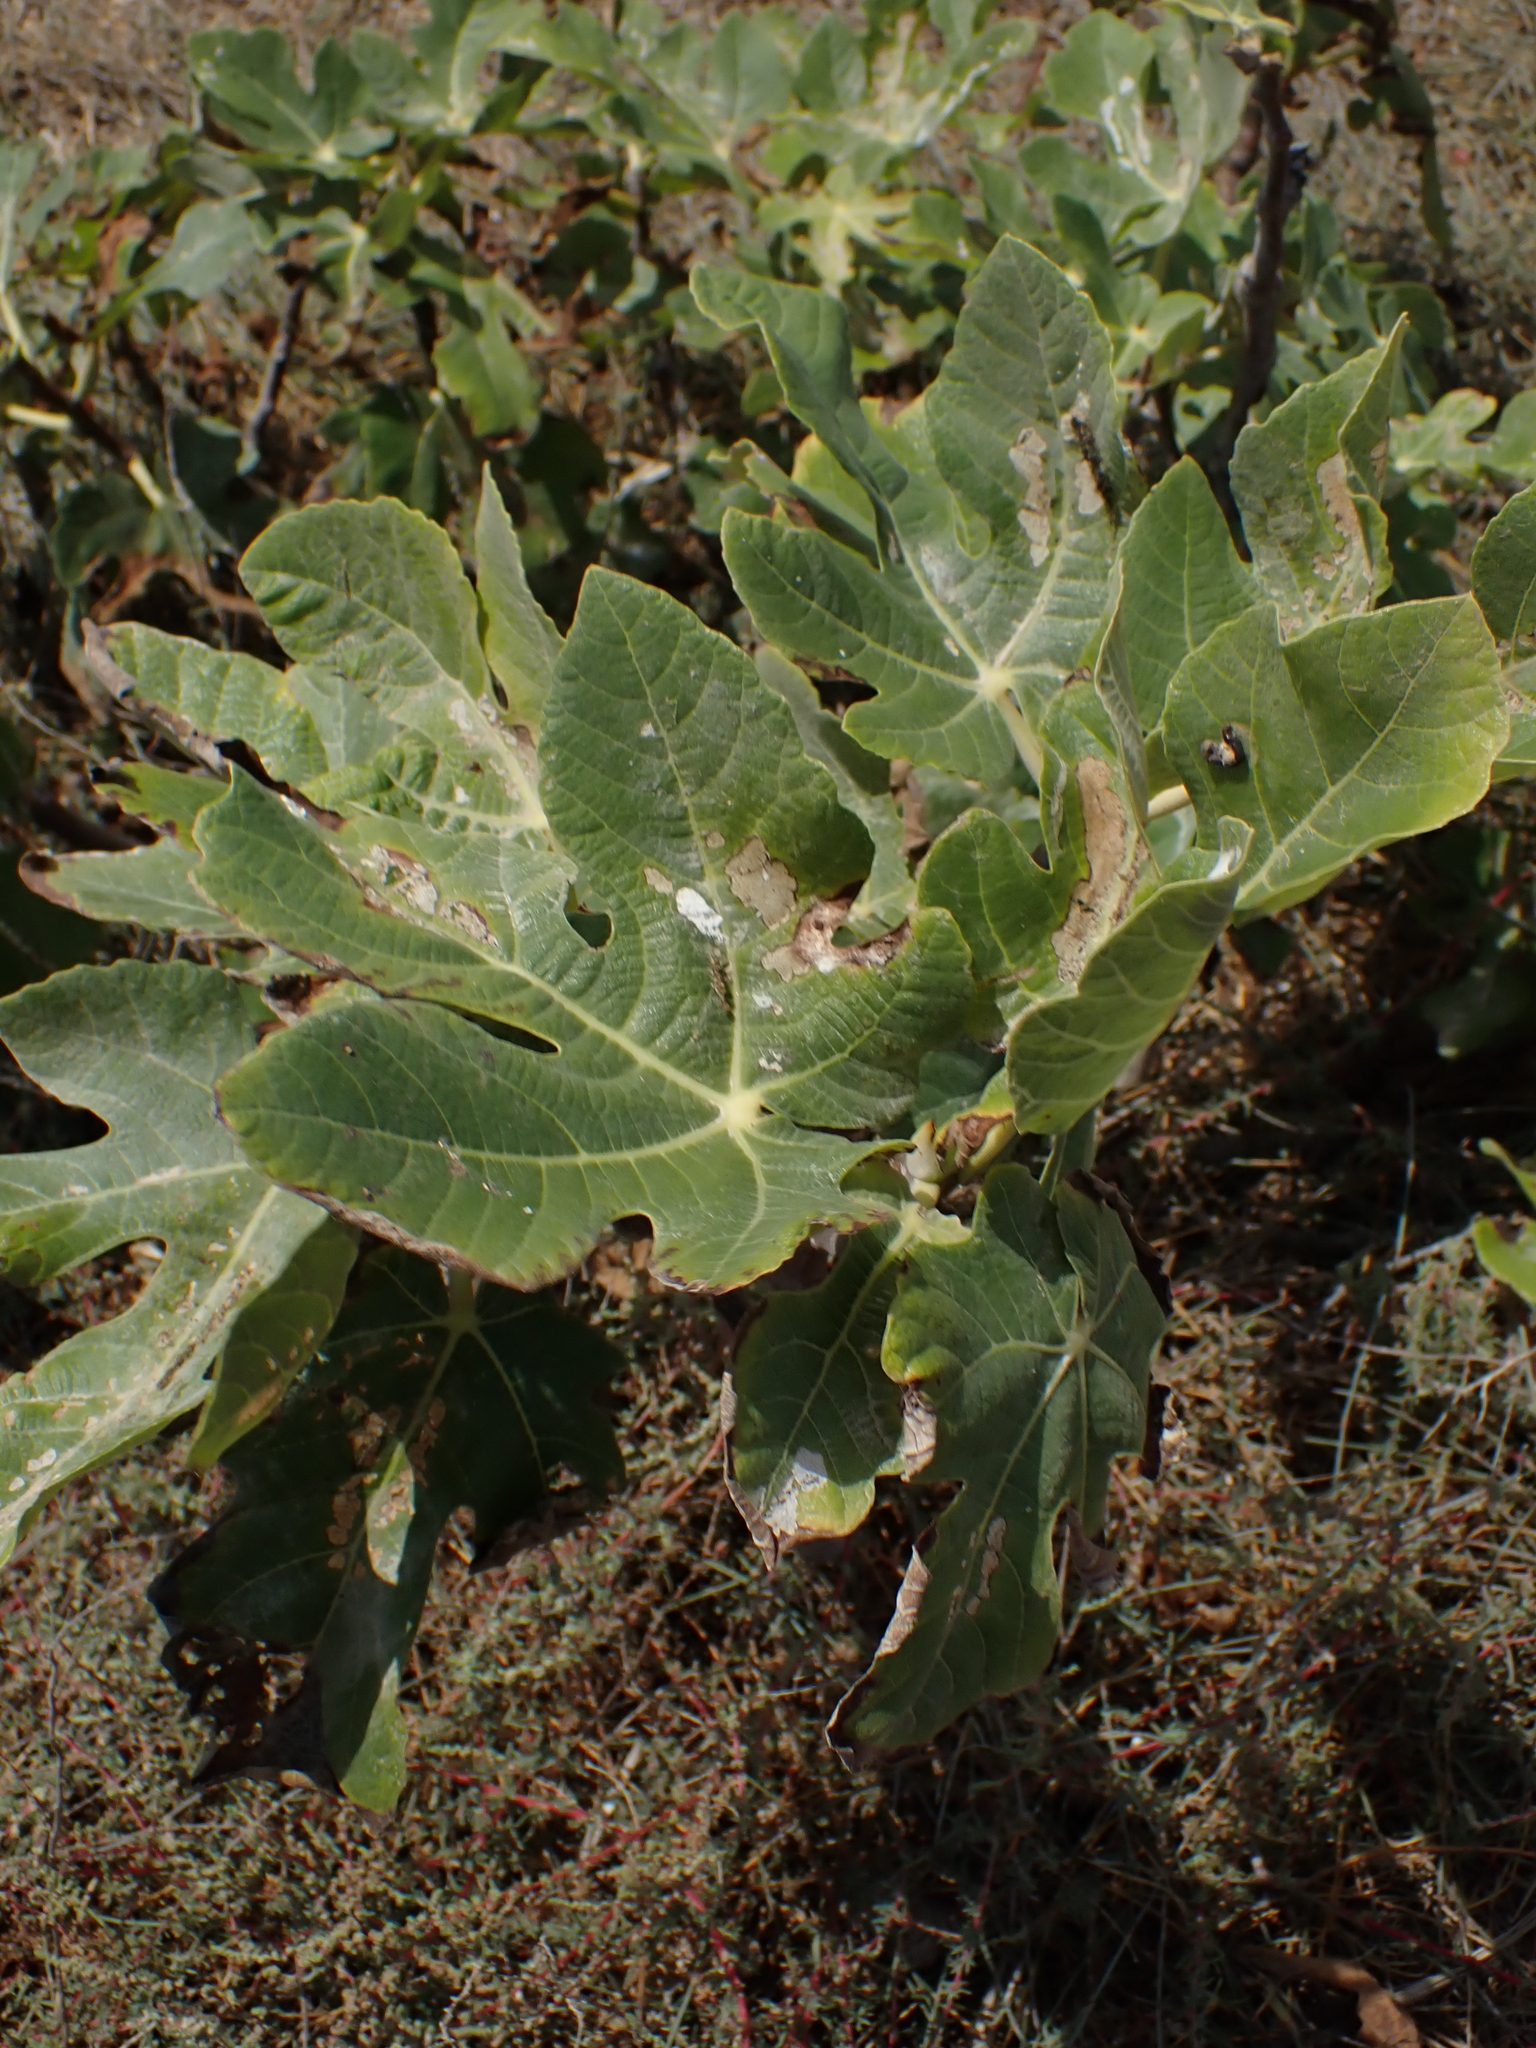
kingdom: Plantae
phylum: Tracheophyta
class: Magnoliopsida
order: Rosales
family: Moraceae
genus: Ficus
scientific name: Ficus carica
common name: Fig
